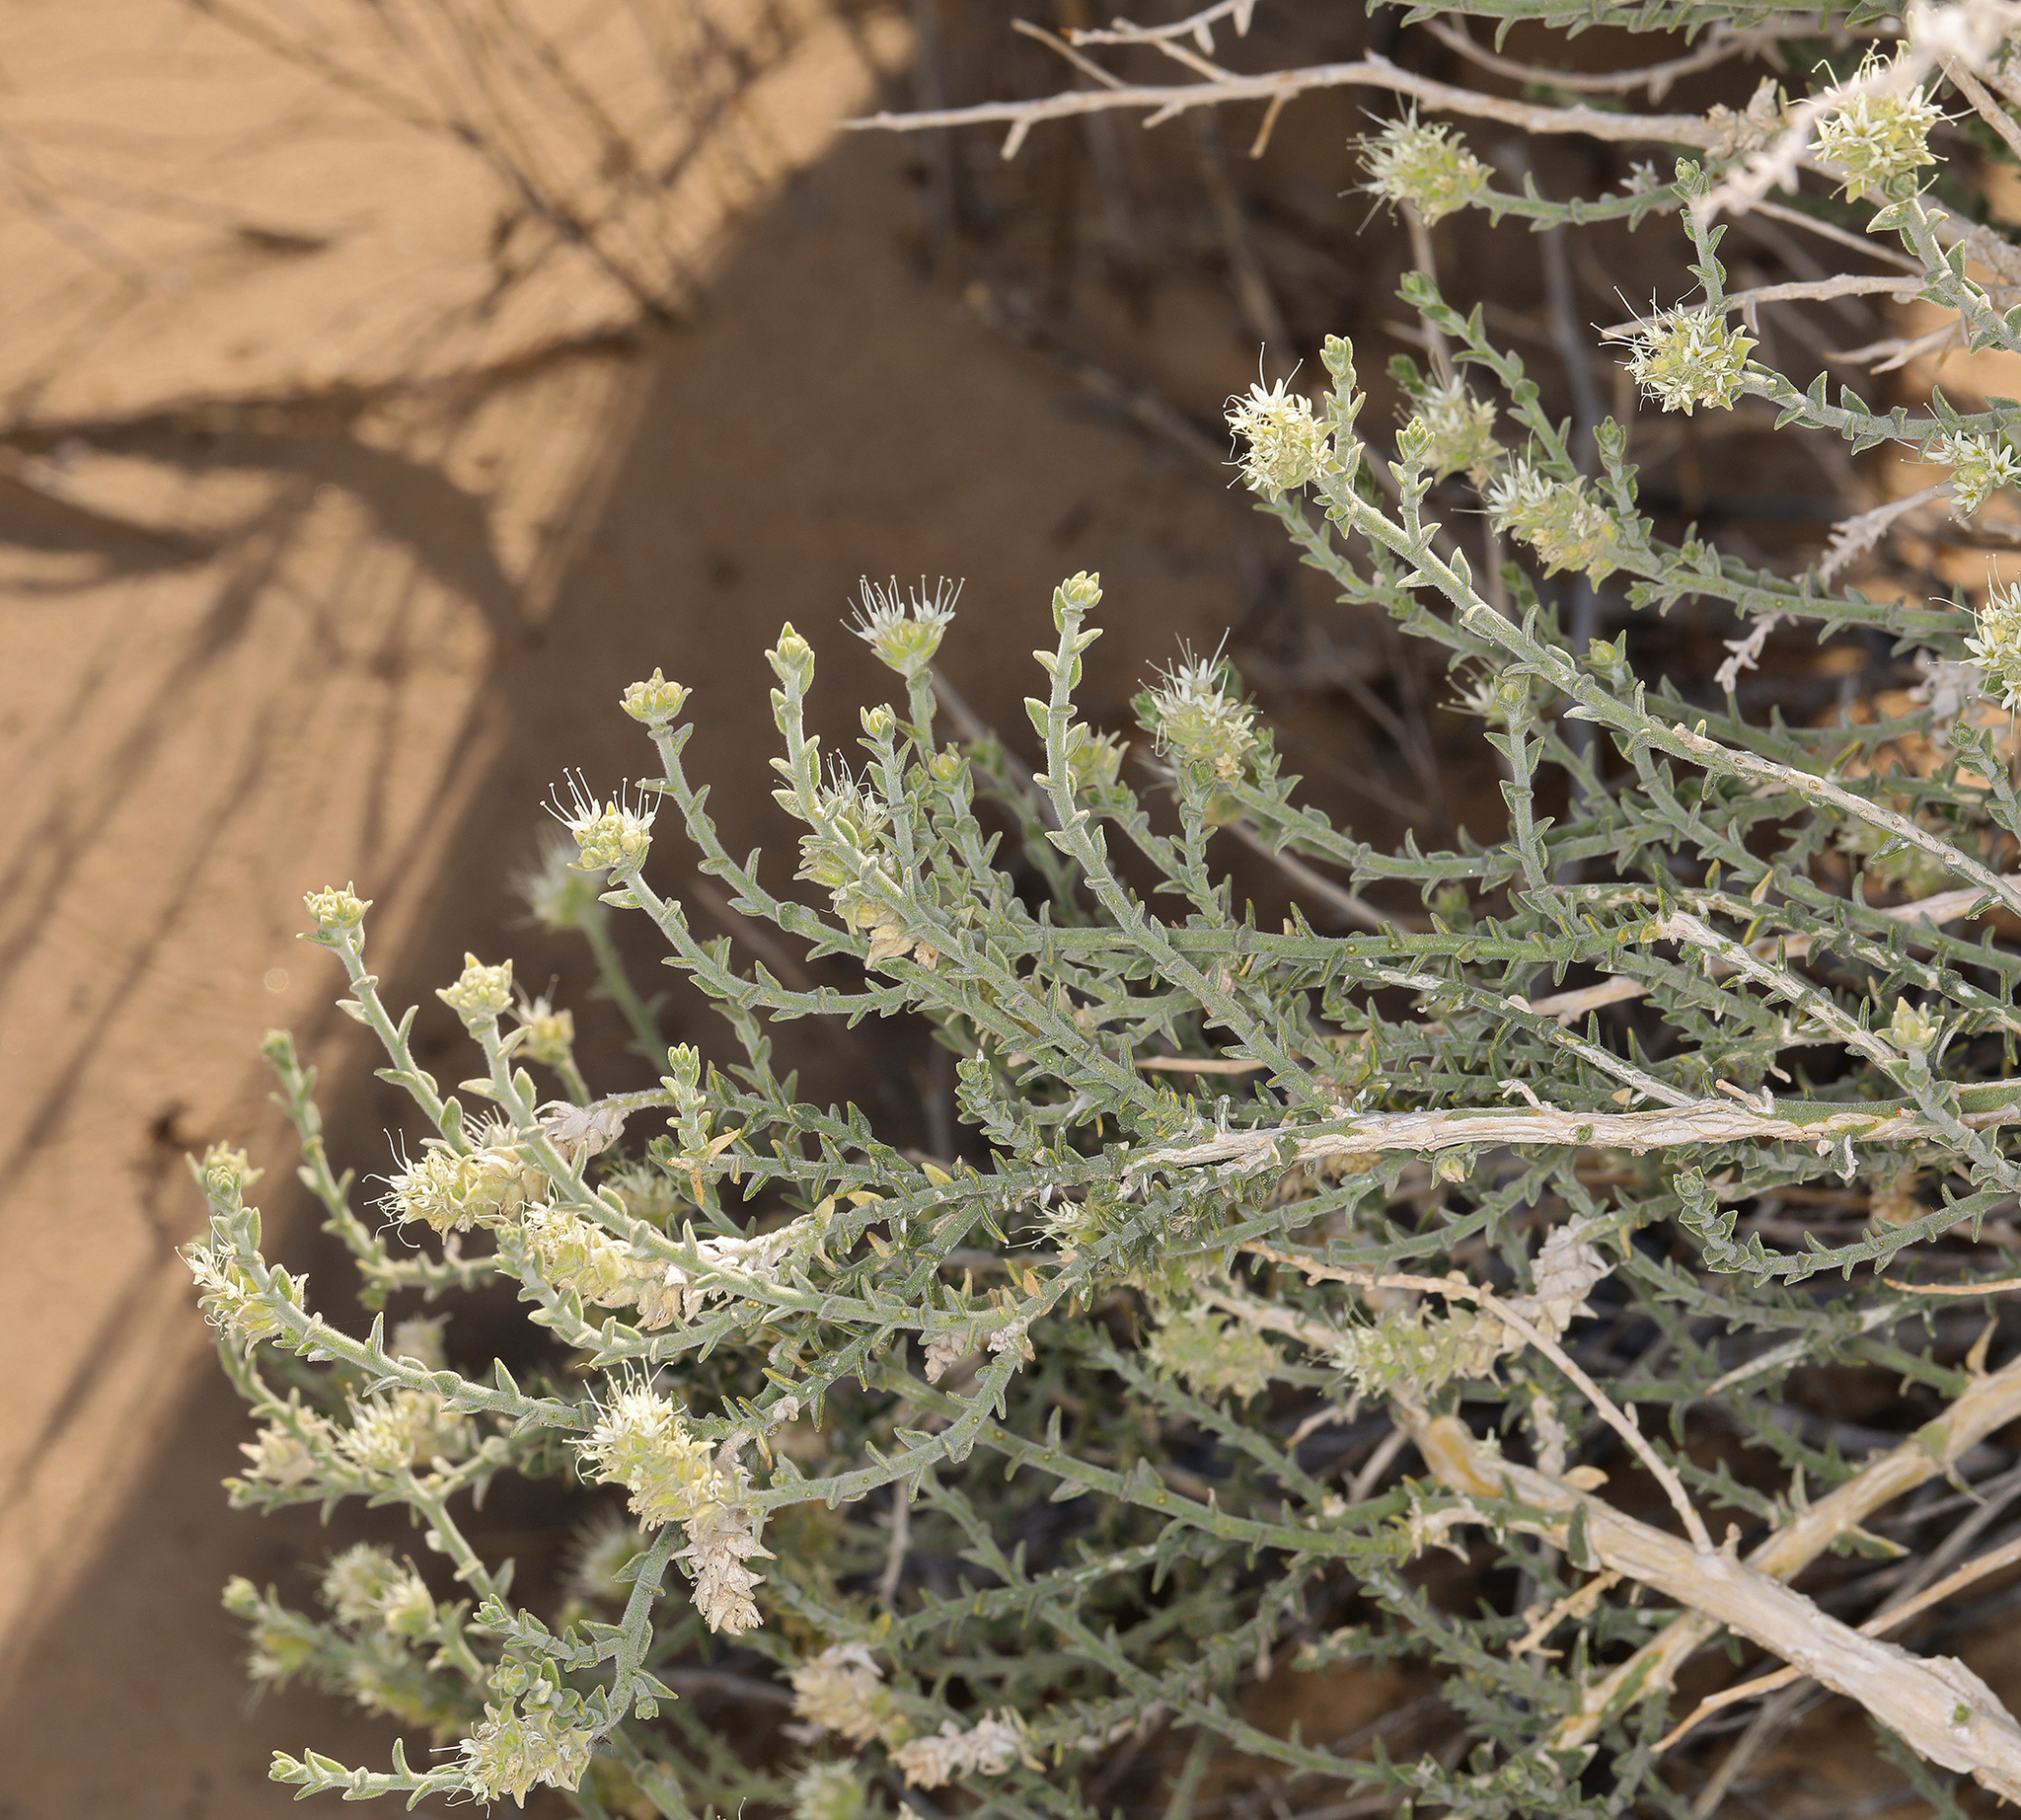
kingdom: Plantae
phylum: Tracheophyta
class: Magnoliopsida
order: Cornales
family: Loasaceae
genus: Petalonyx
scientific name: Petalonyx thurberi
